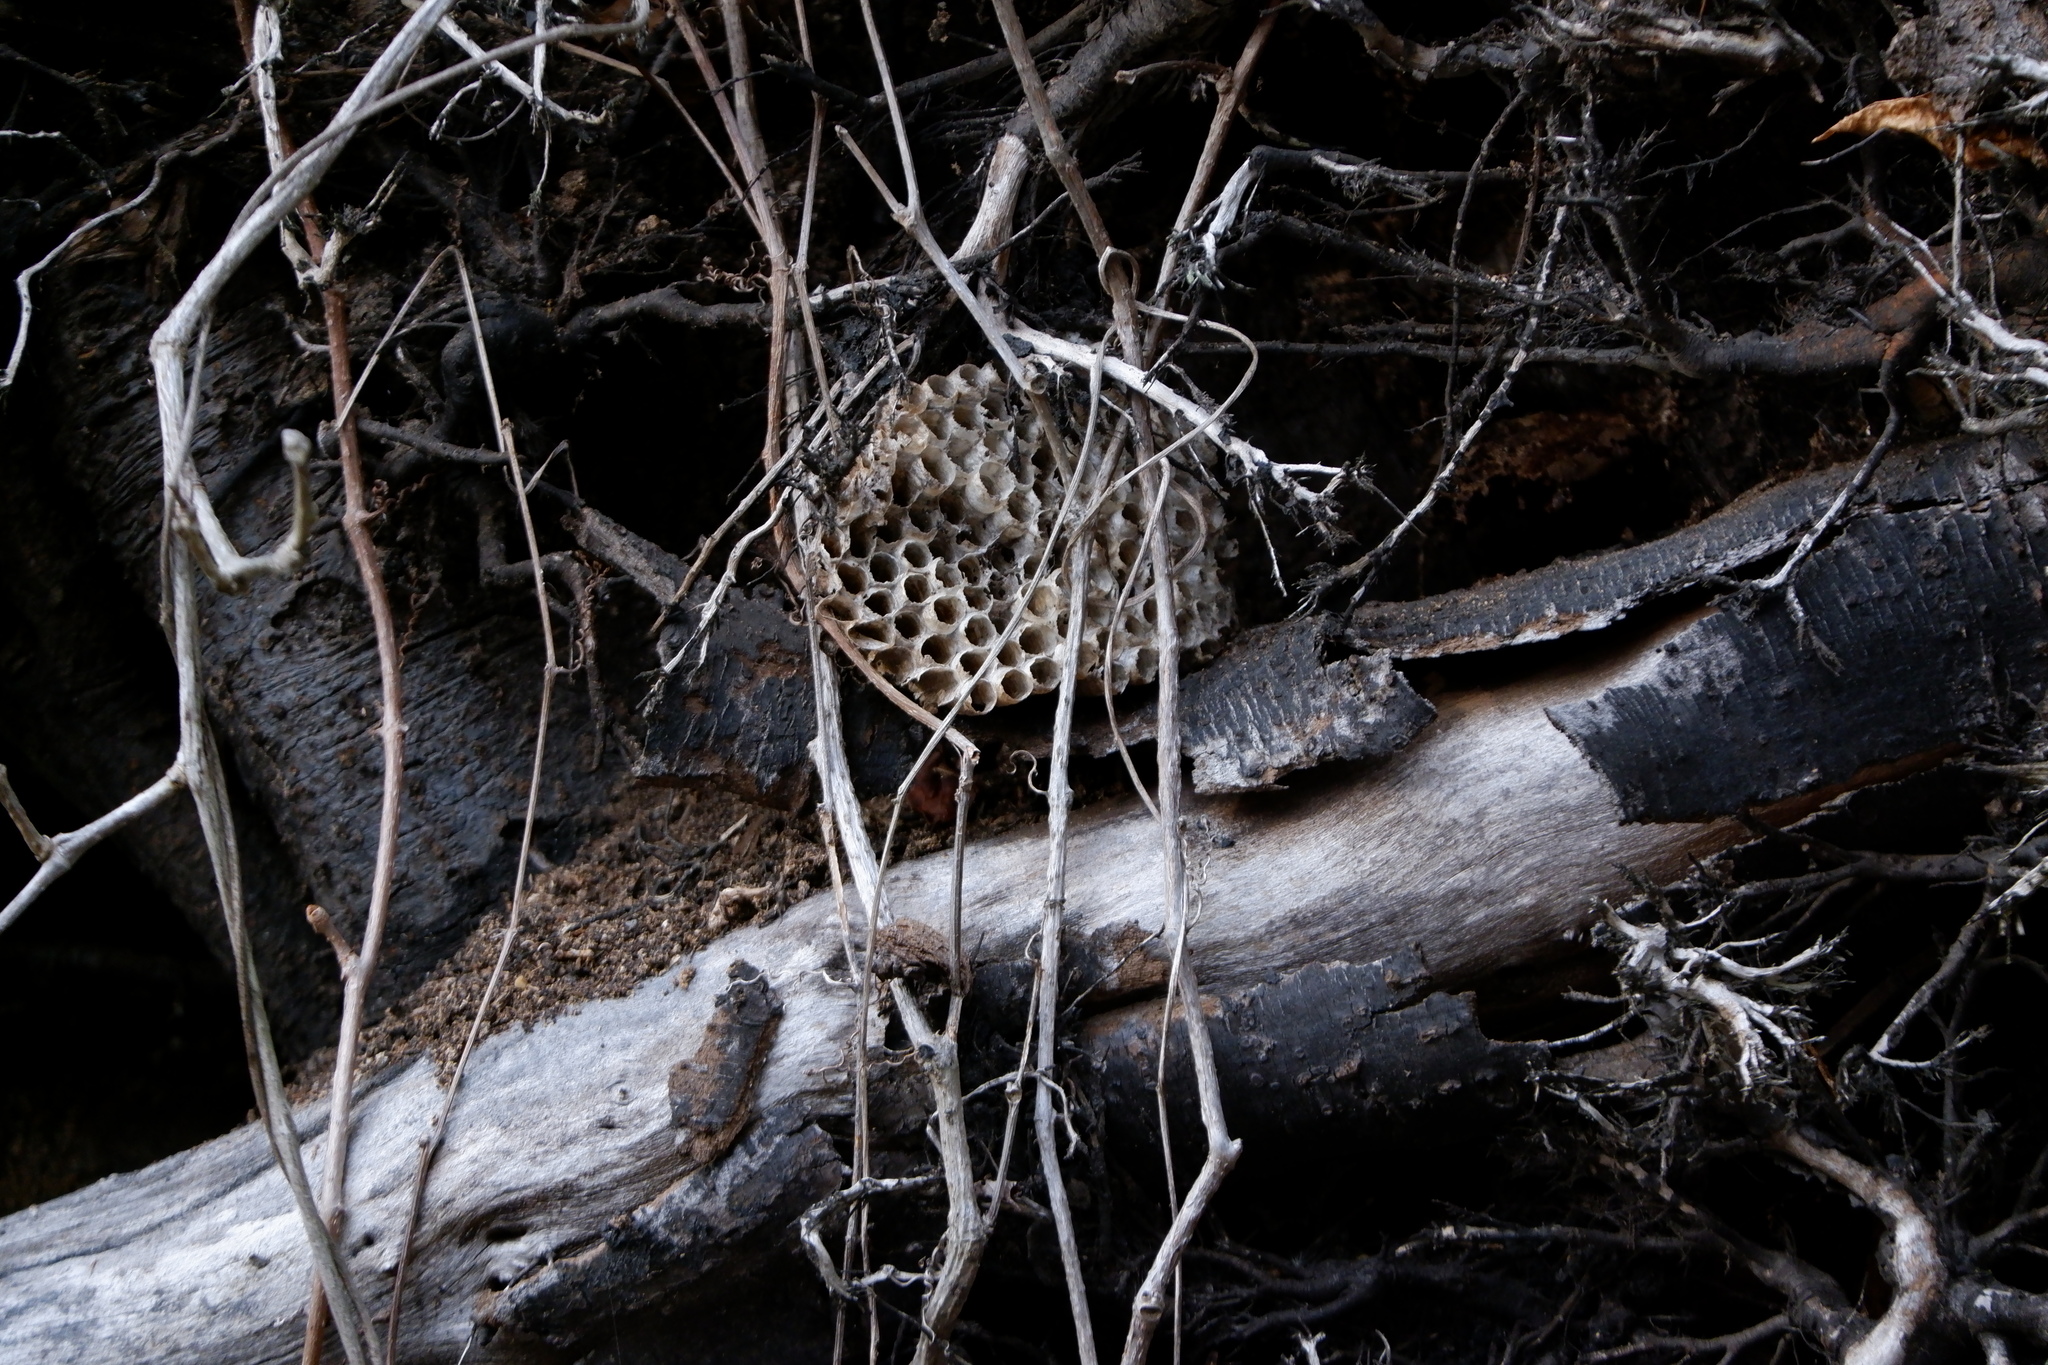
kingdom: Animalia
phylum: Arthropoda
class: Insecta
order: Hymenoptera
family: Eumenidae
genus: Polistes
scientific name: Polistes
